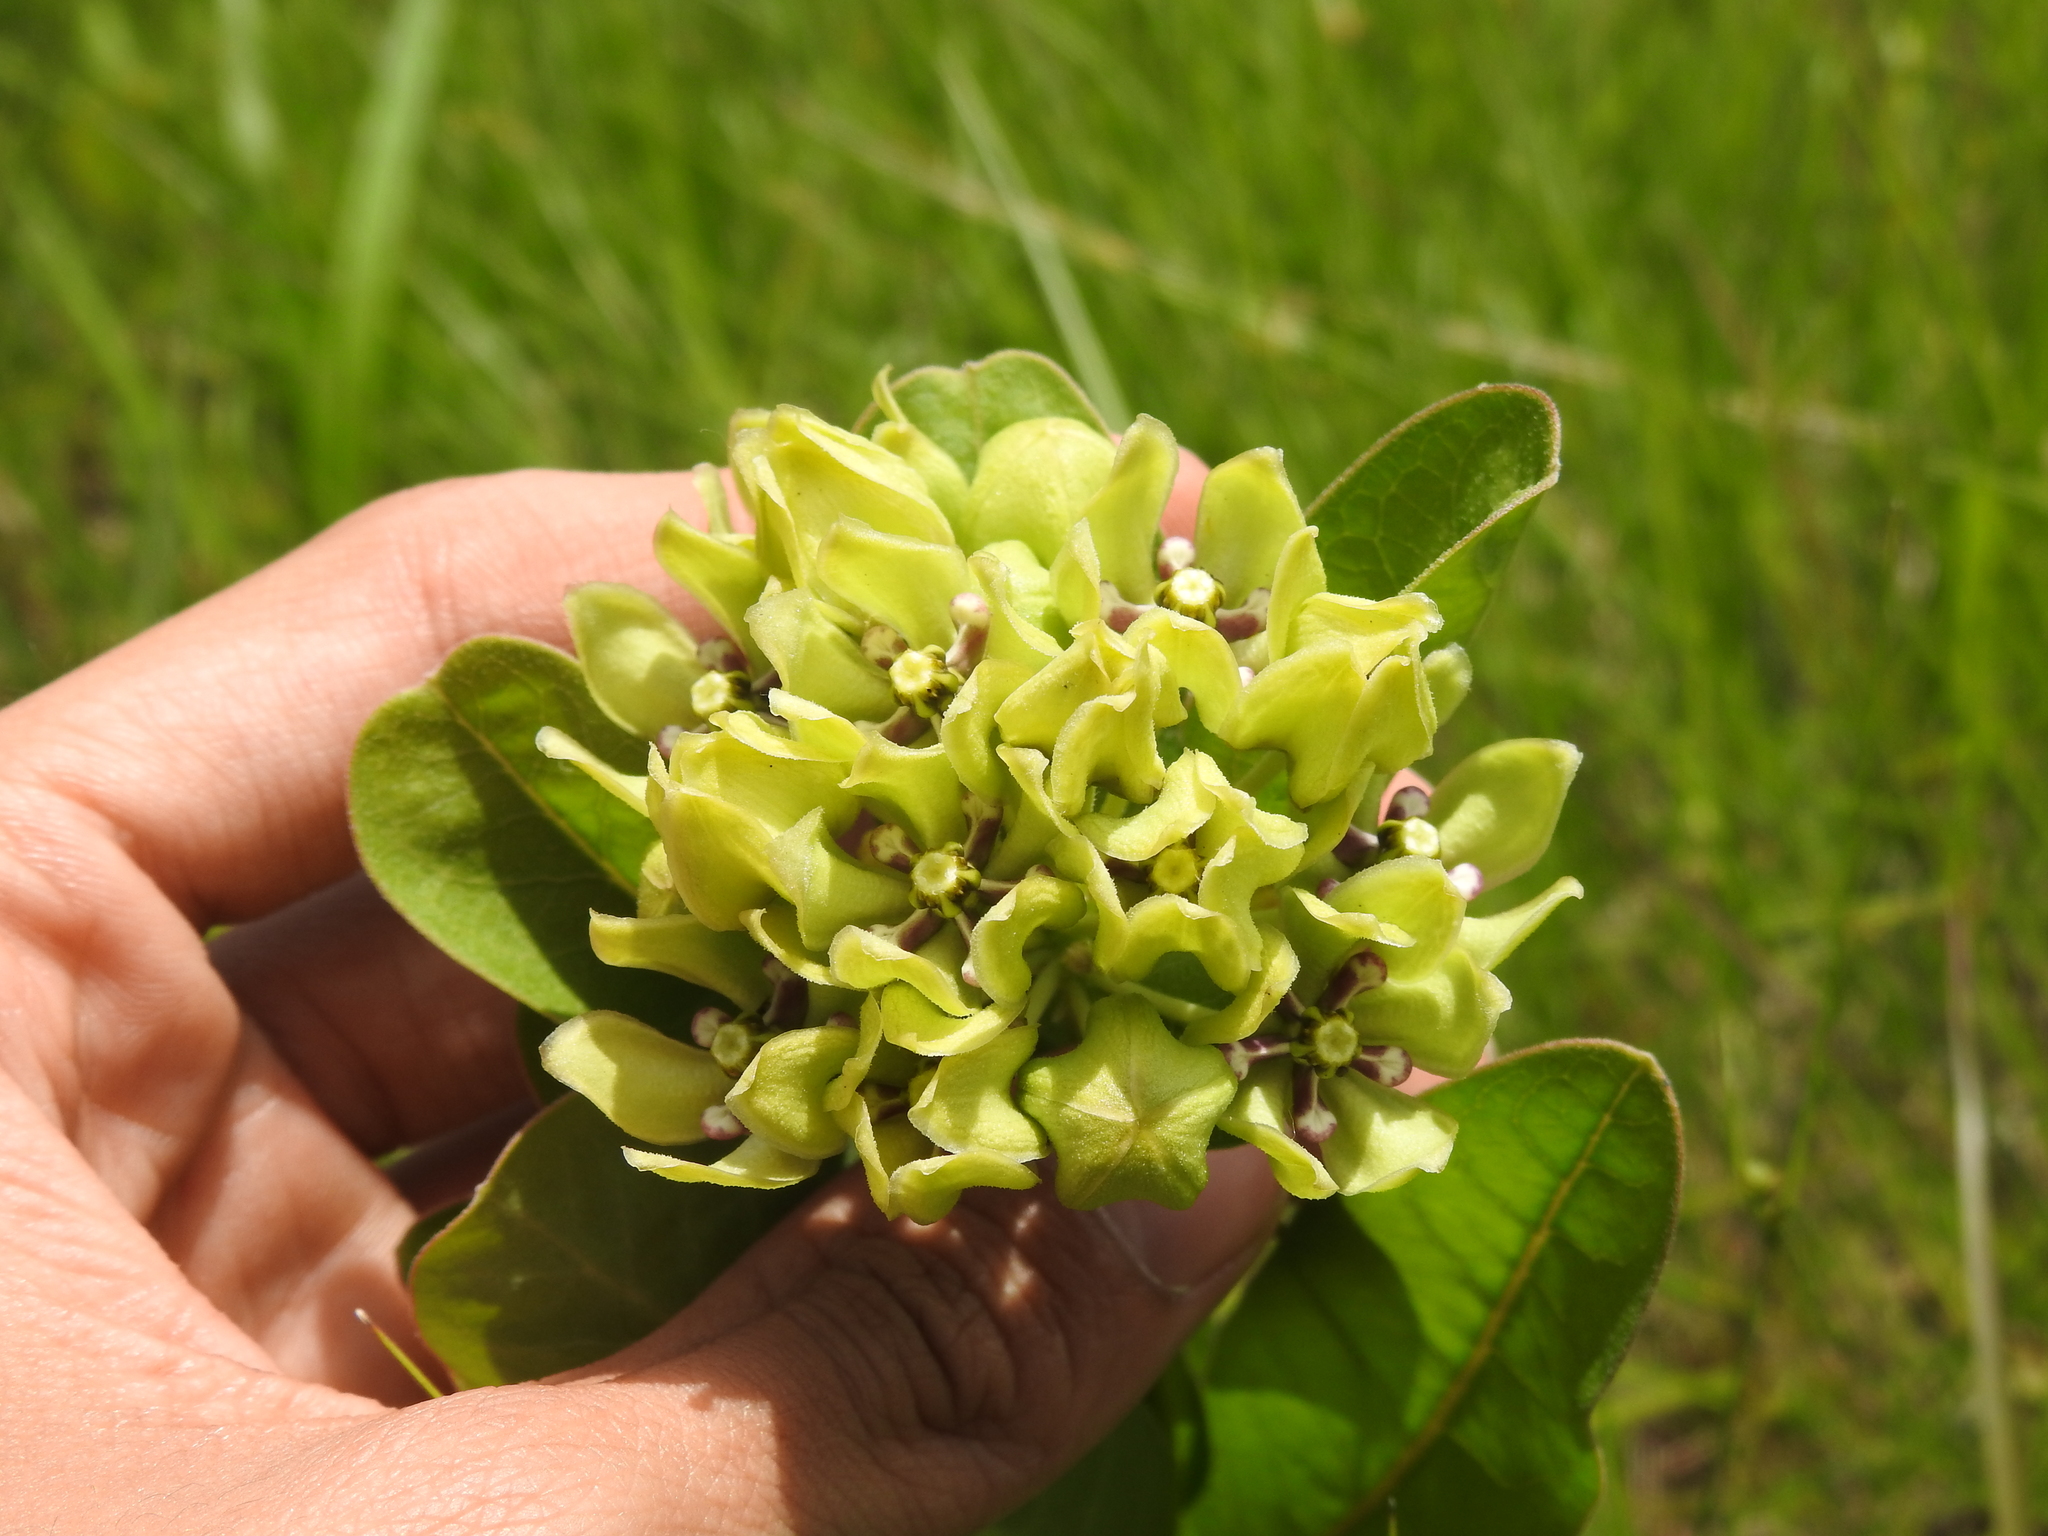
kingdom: Plantae
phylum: Tracheophyta
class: Magnoliopsida
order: Gentianales
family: Apocynaceae
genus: Asclepias
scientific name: Asclepias viridis
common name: Antelope-horns
